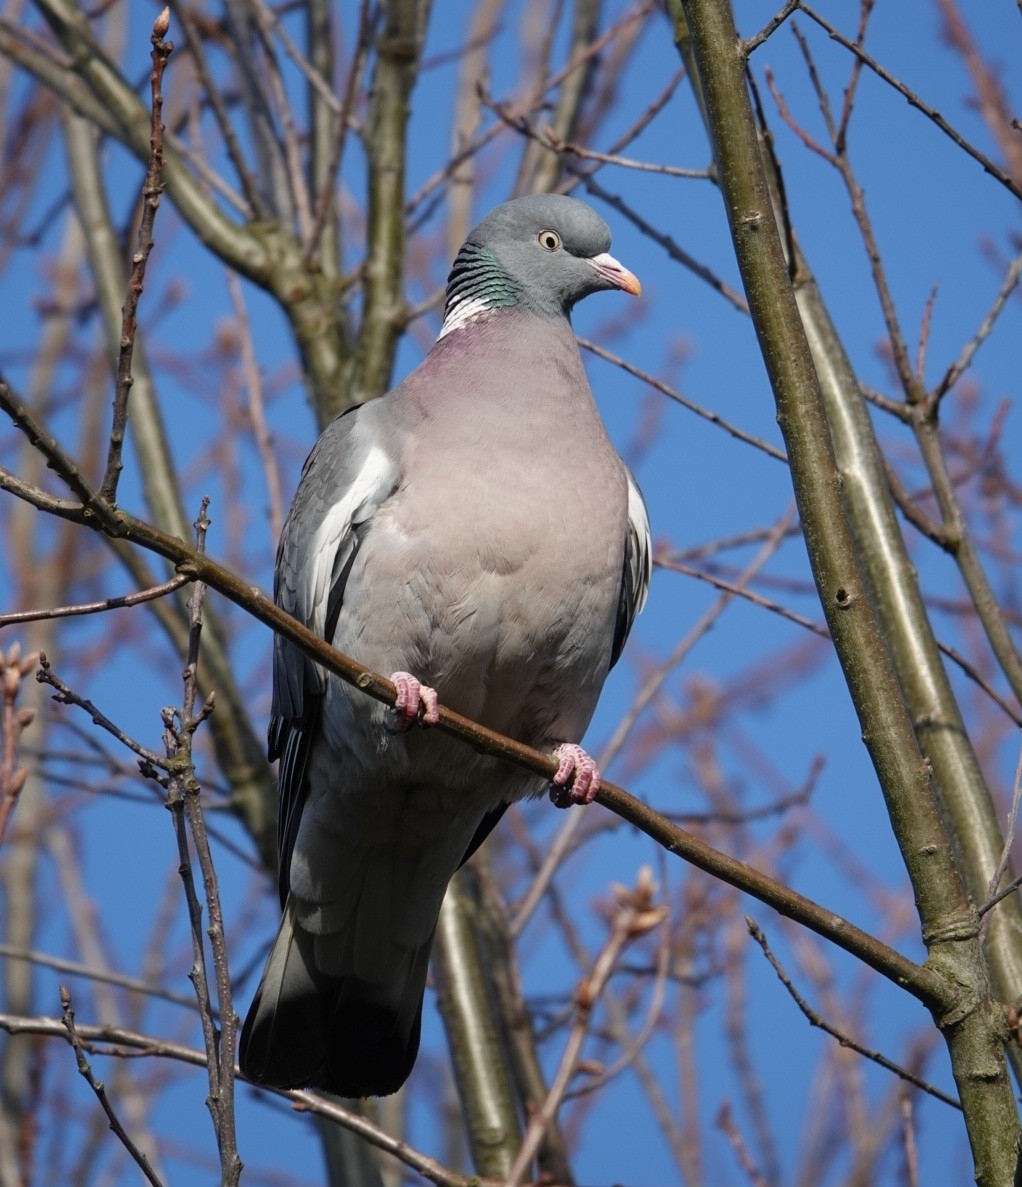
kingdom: Animalia
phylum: Chordata
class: Aves
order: Columbiformes
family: Columbidae
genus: Columba
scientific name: Columba palumbus
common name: Common wood pigeon
